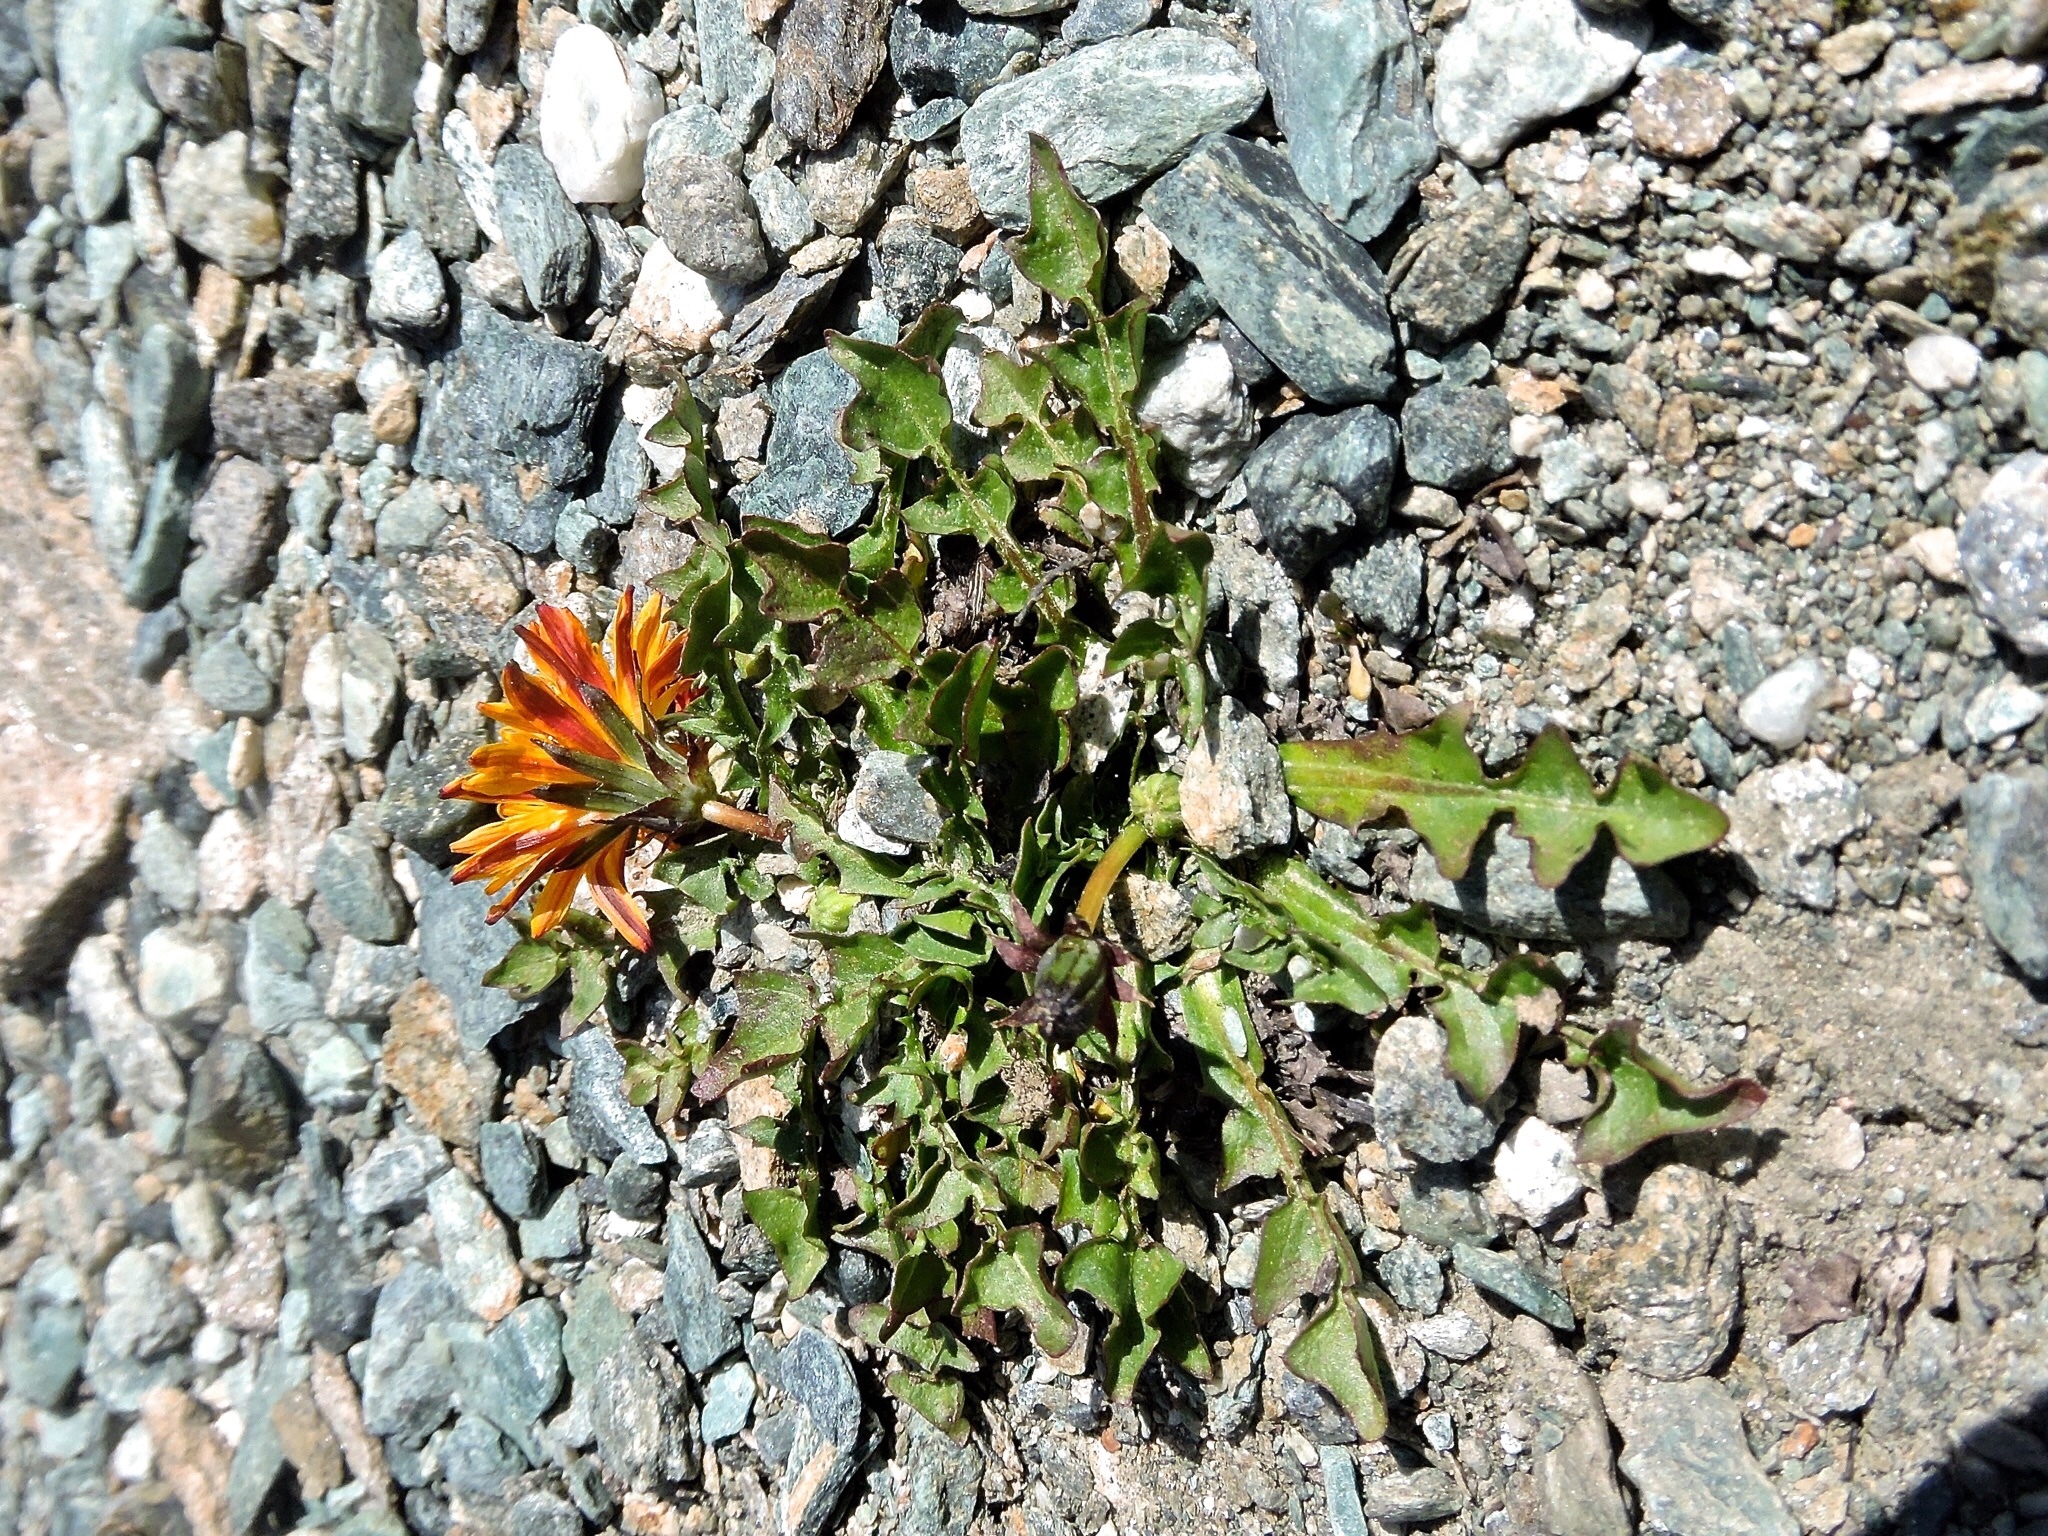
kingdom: Plantae
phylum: Tracheophyta
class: Magnoliopsida
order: Asterales
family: Asteraceae
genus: Taraxacum
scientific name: Taraxacum pacheri
